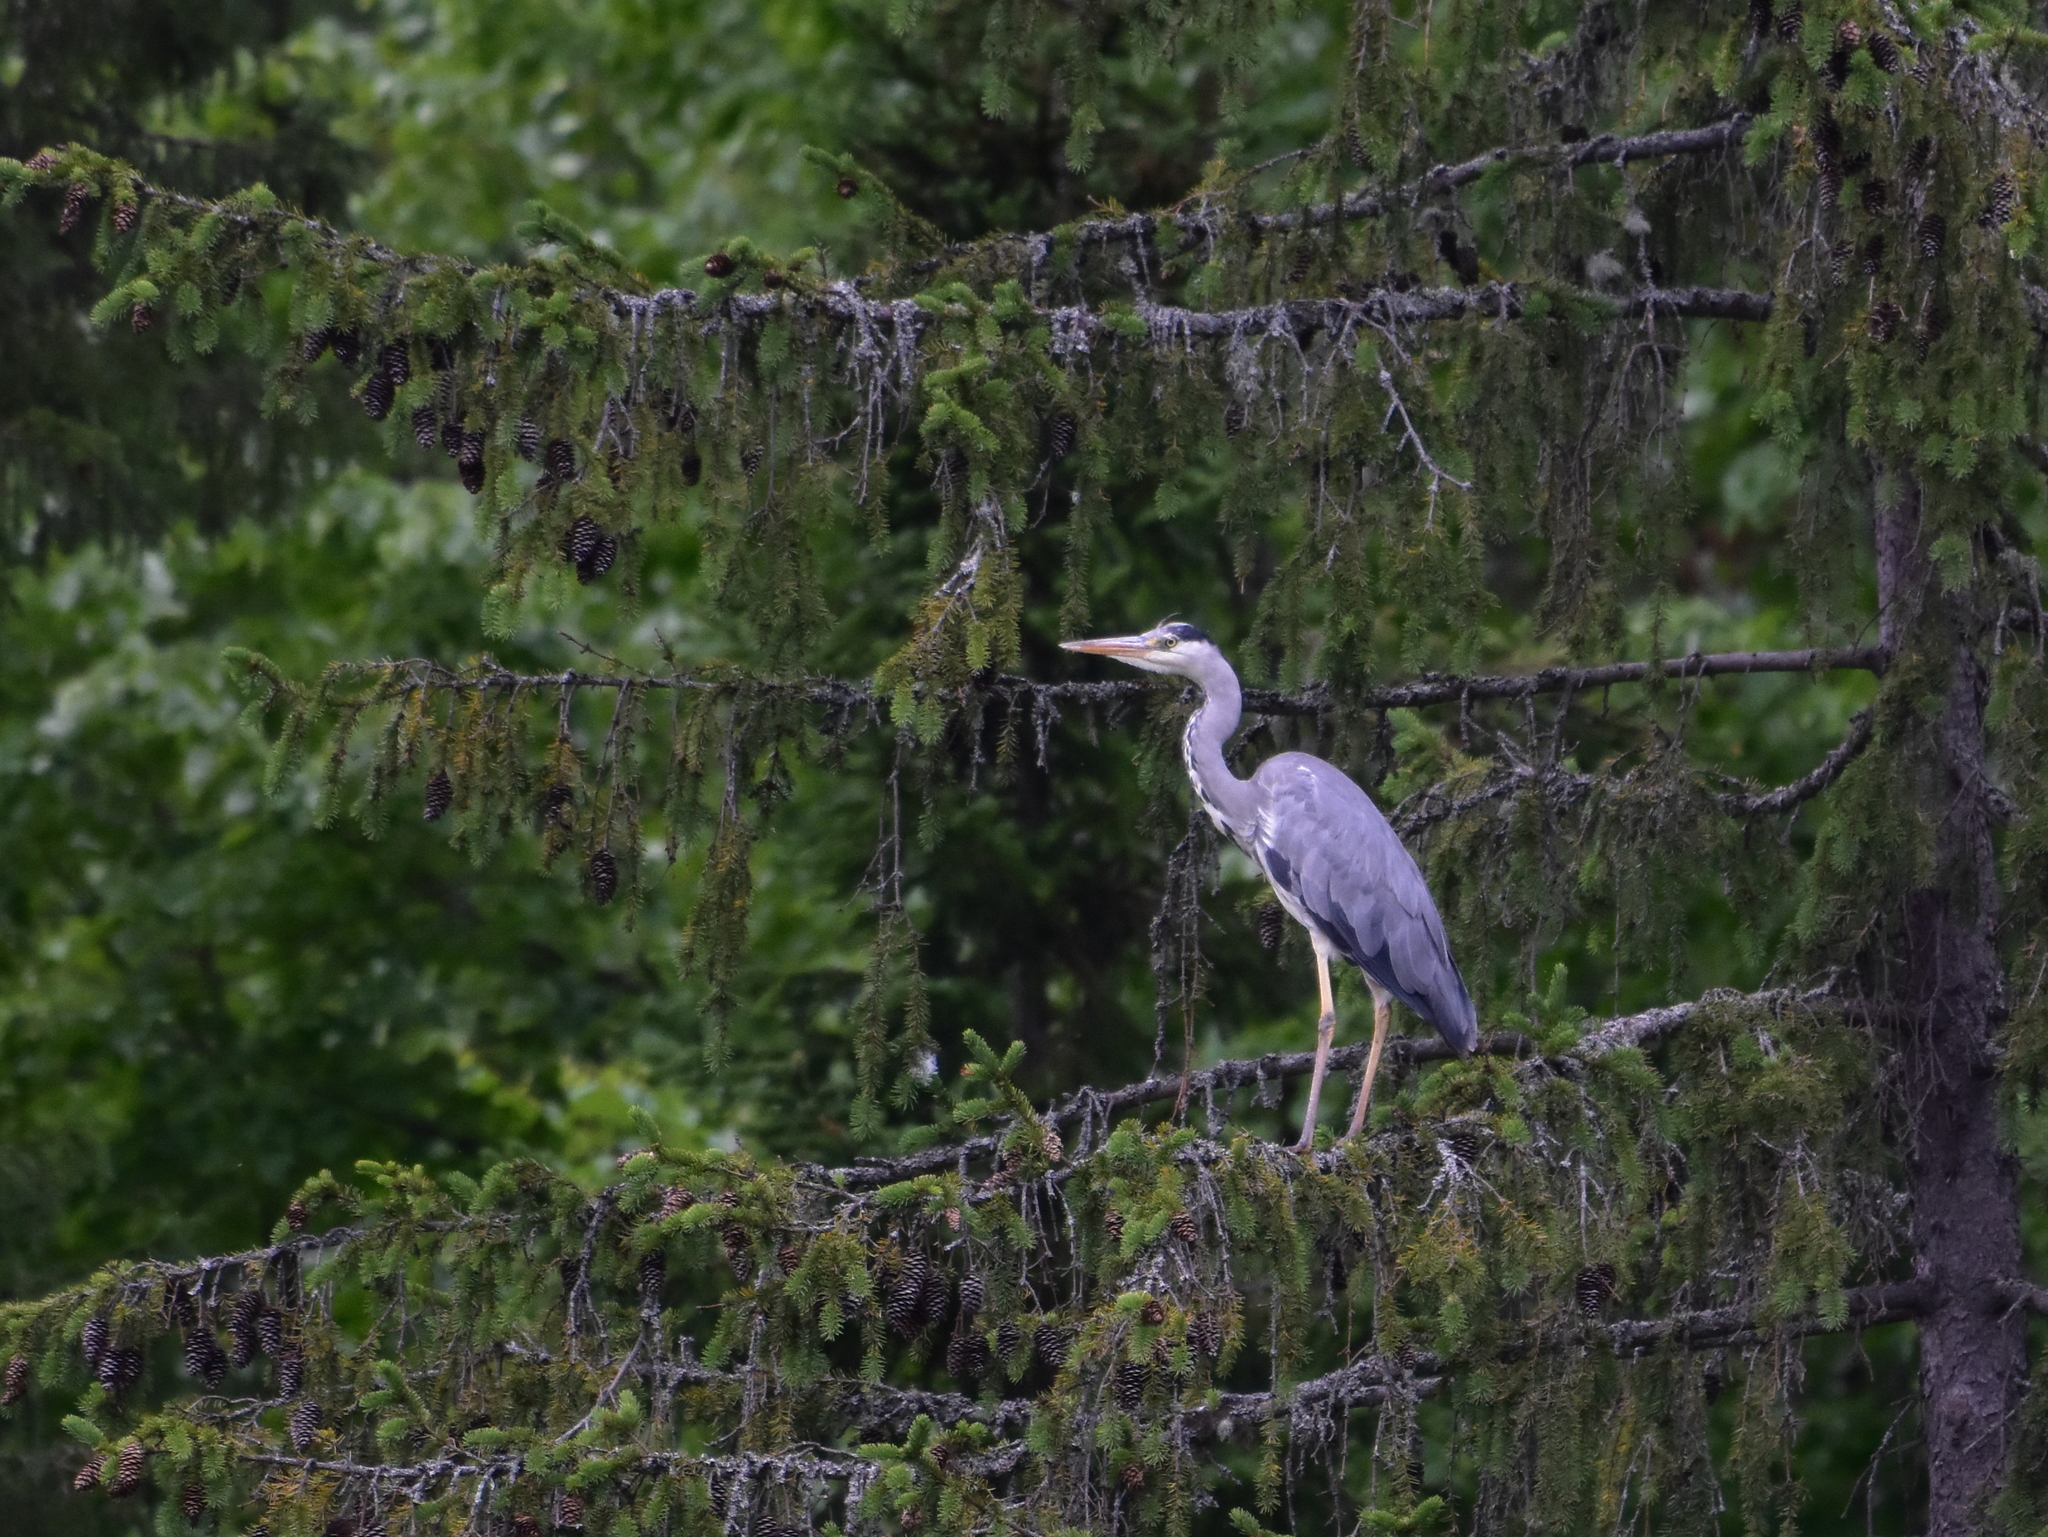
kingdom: Animalia
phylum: Chordata
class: Aves
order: Pelecaniformes
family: Ardeidae
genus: Ardea
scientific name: Ardea cinerea
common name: Grey heron
